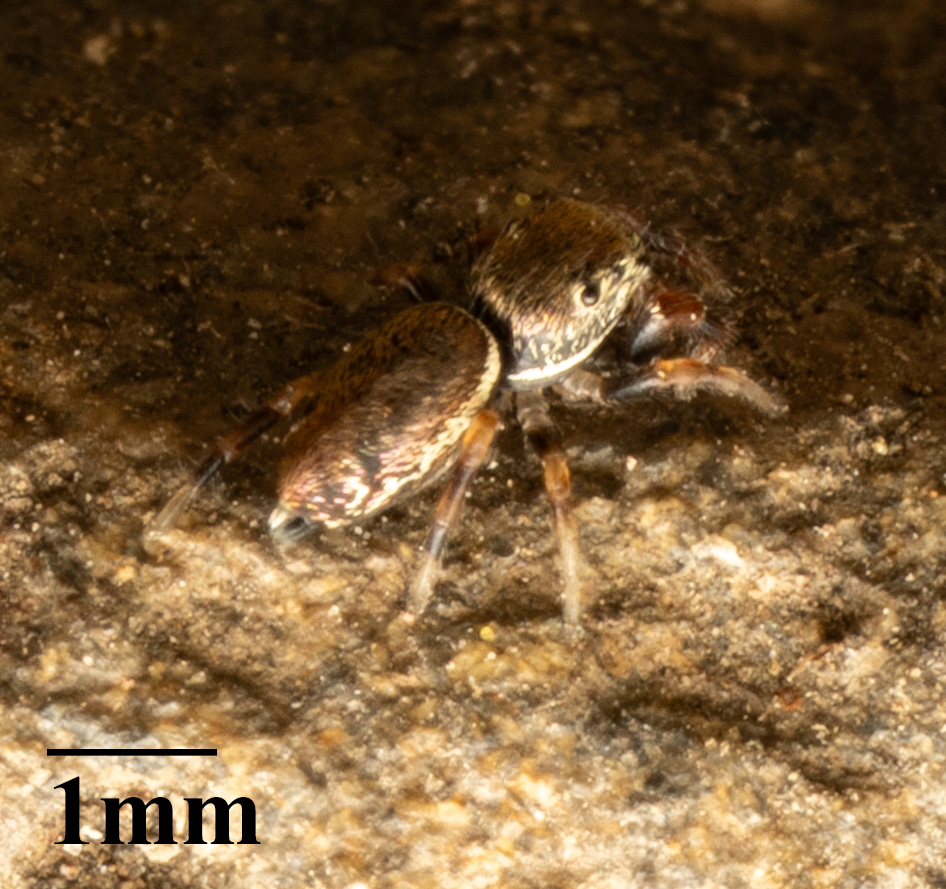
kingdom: Animalia
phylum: Arthropoda
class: Arachnida
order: Araneae
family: Salticidae
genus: Sassacus
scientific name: Sassacus vitis
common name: Jumping spiders
